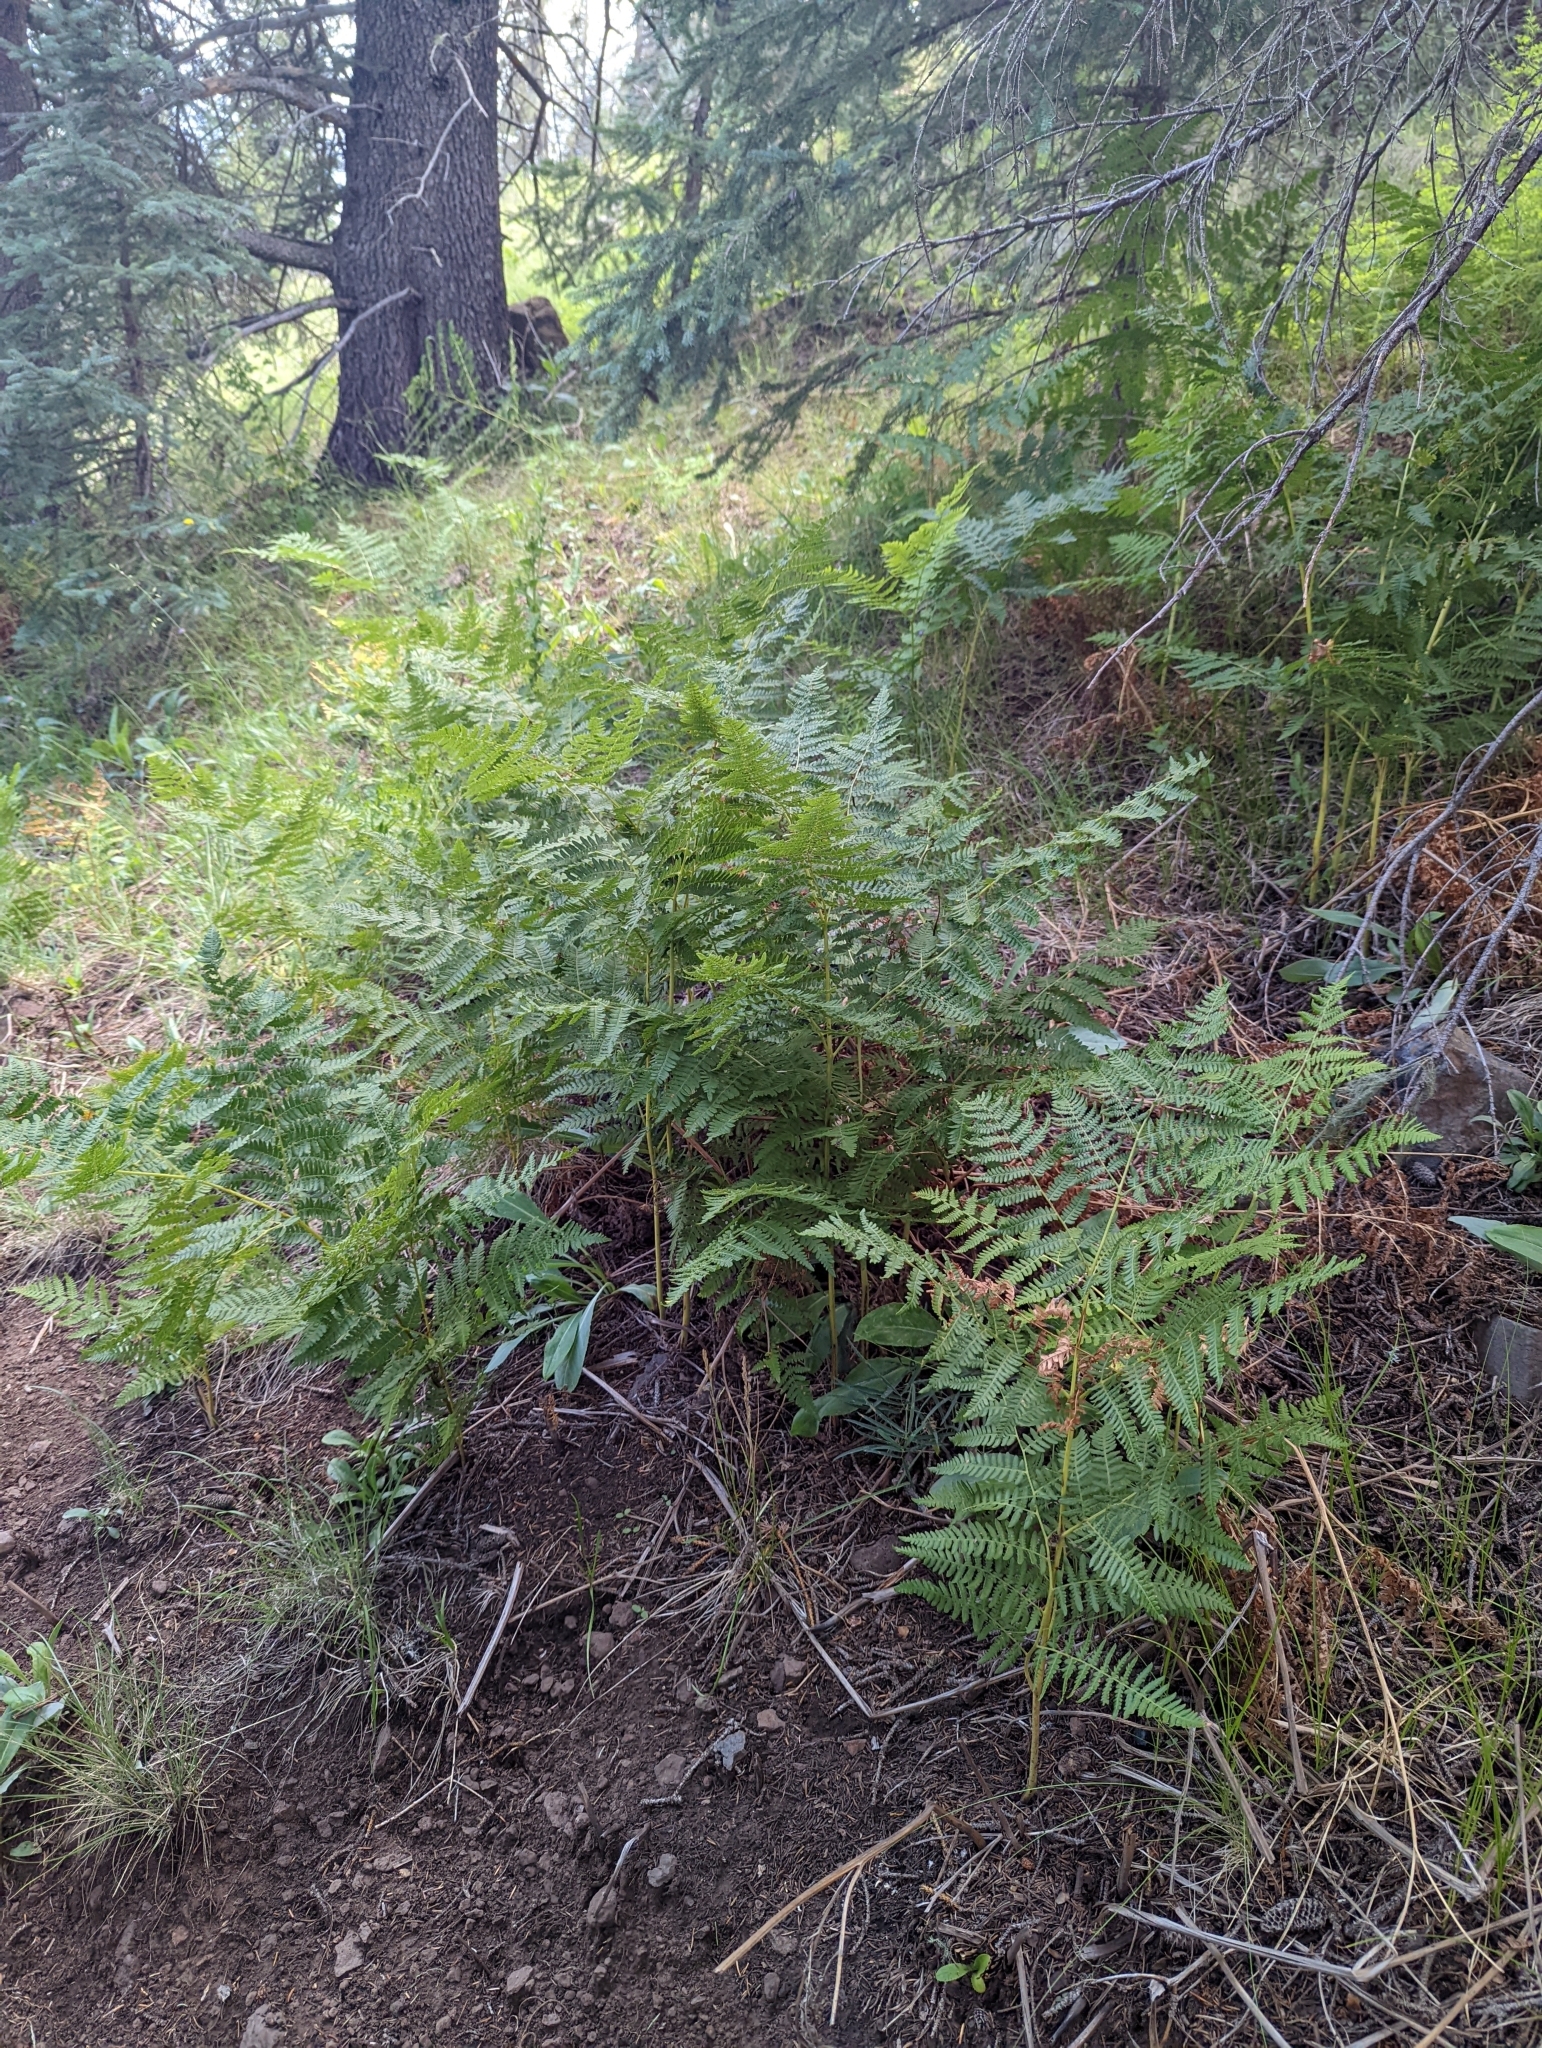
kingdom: Plantae
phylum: Tracheophyta
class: Polypodiopsida
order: Polypodiales
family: Dennstaedtiaceae
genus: Pteridium
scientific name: Pteridium aquilinum
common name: Bracken
